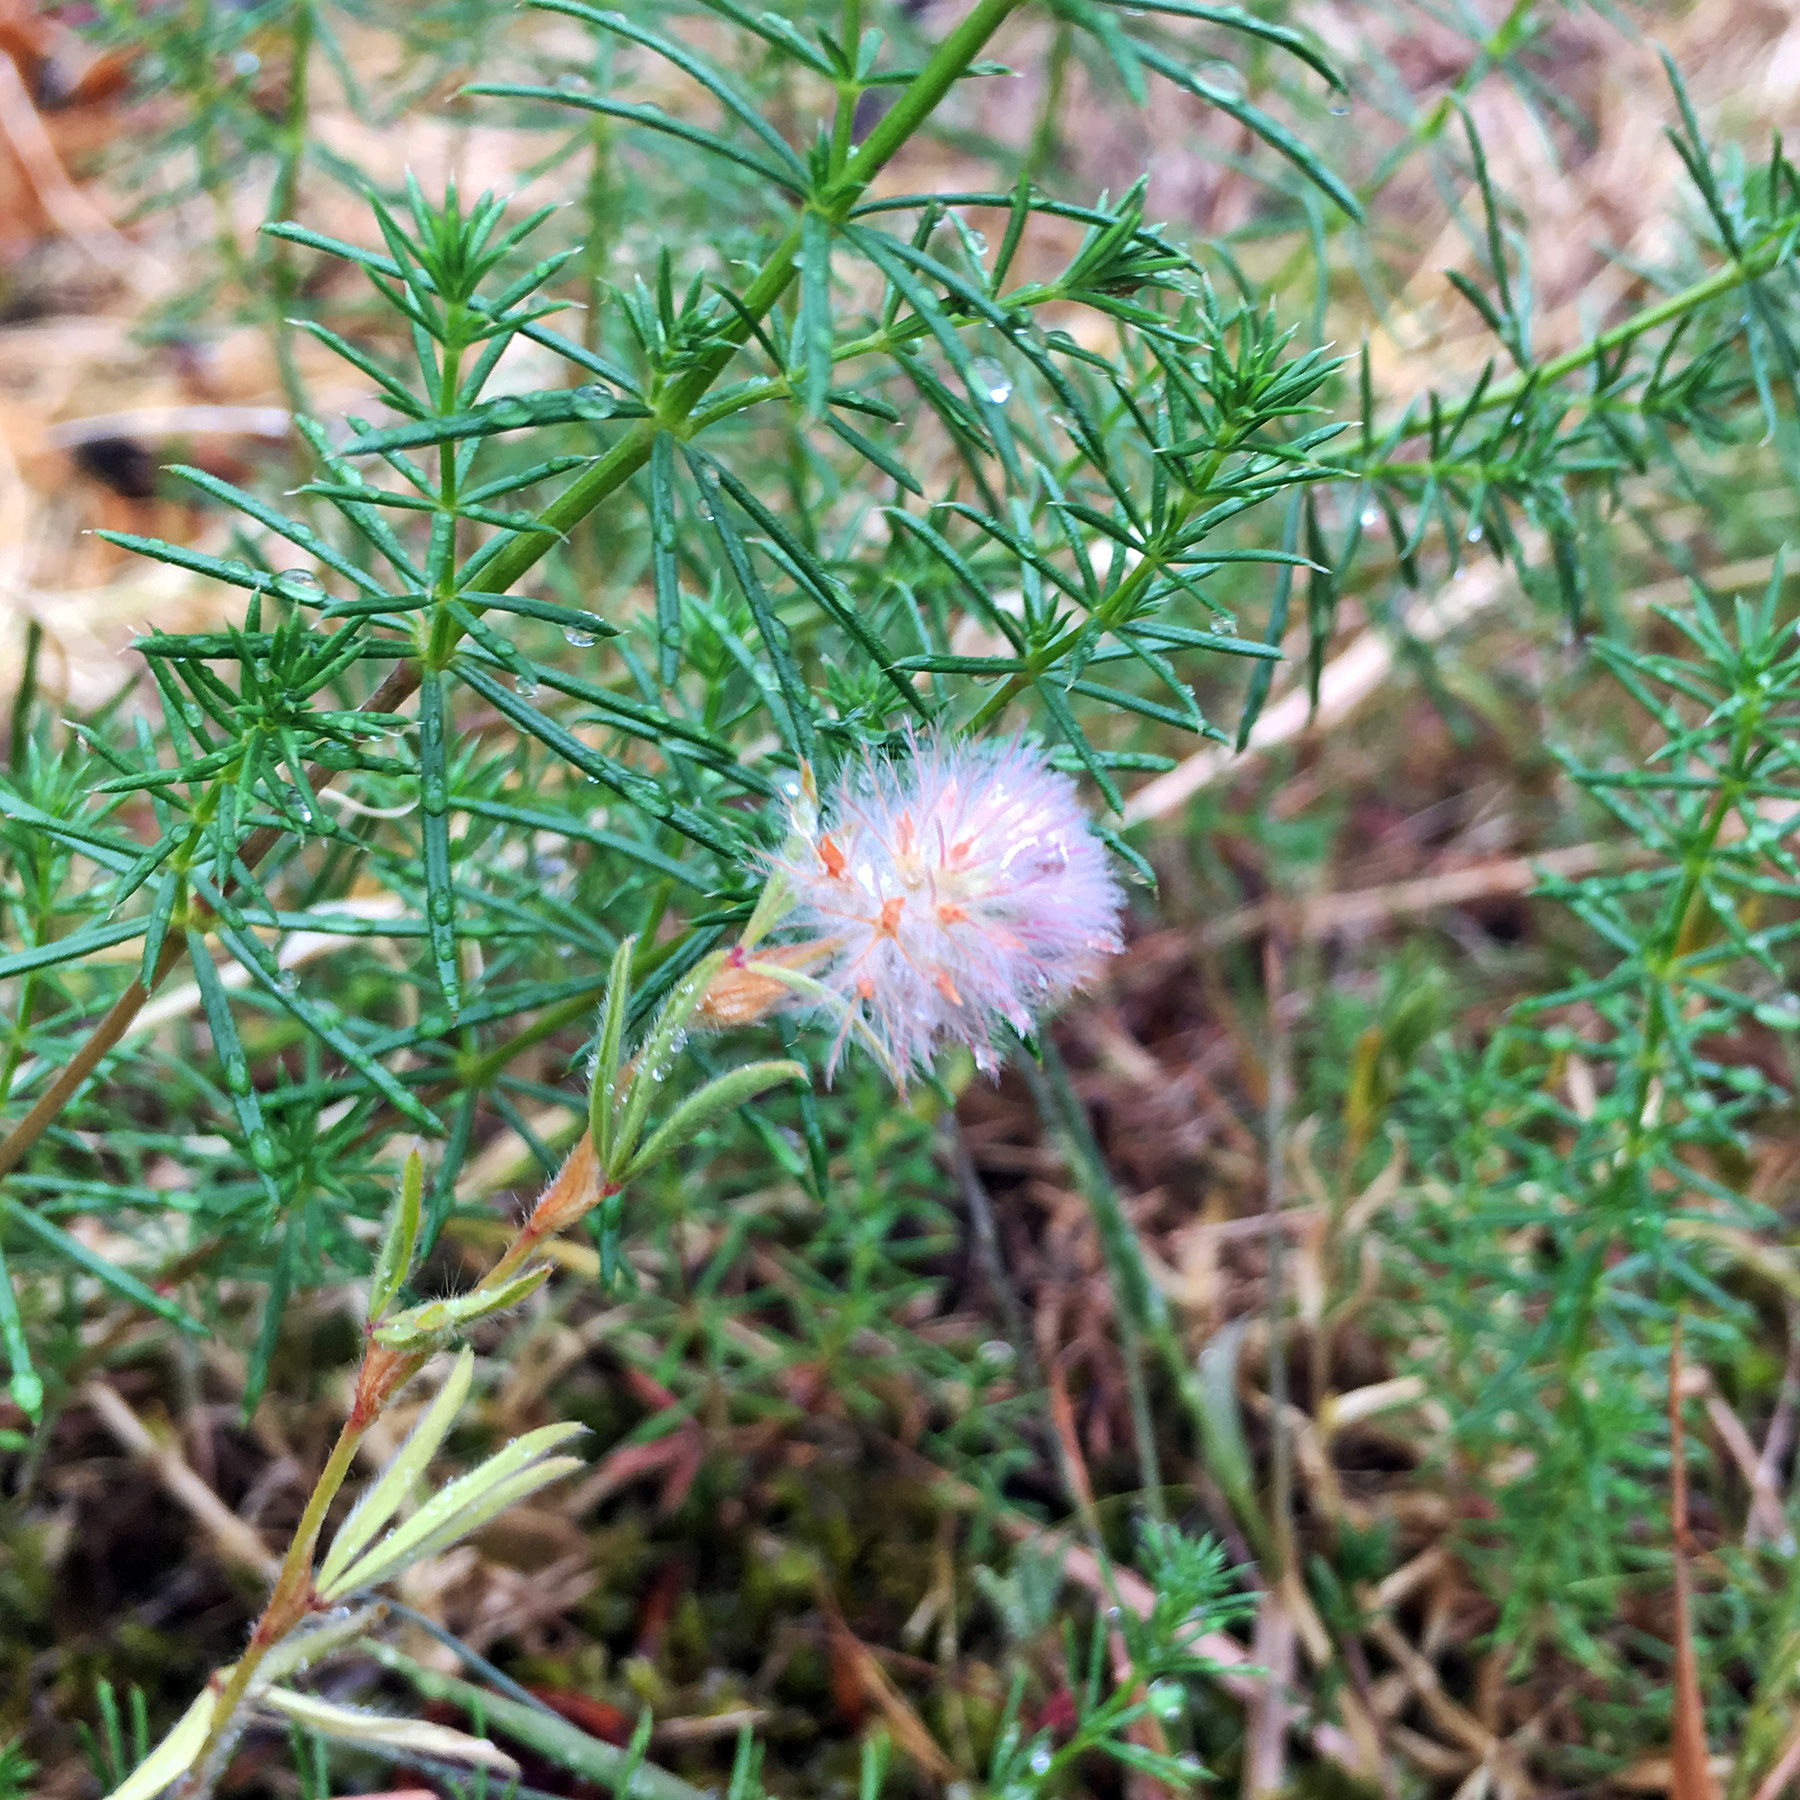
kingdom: Plantae
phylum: Tracheophyta
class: Magnoliopsida
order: Fabales
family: Fabaceae
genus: Trifolium
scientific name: Trifolium arvense
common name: Hare's-foot clover
